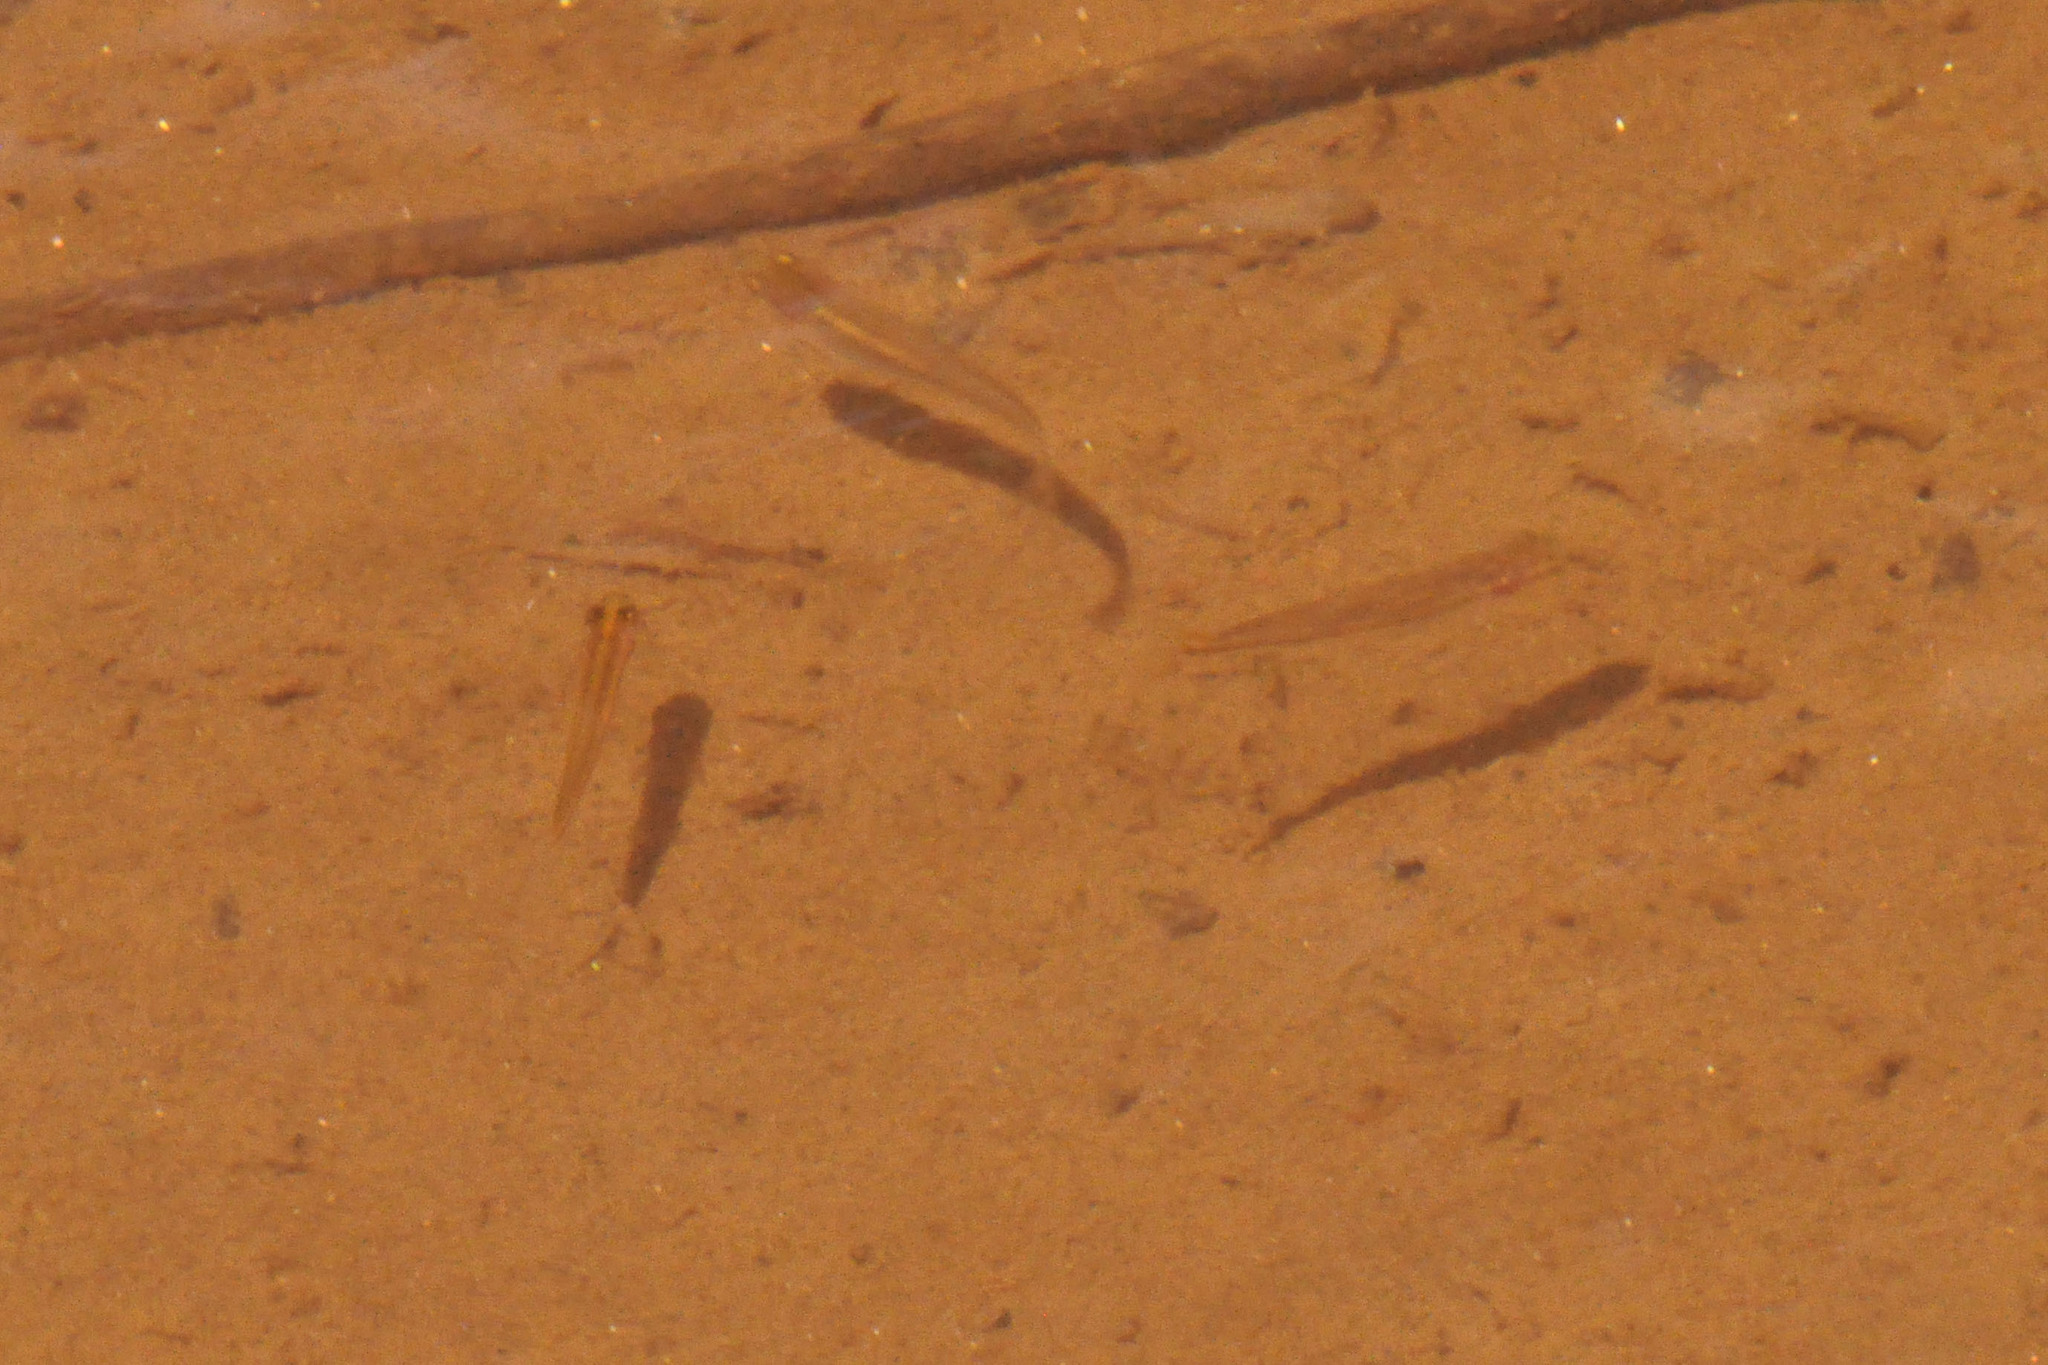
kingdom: Animalia
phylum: Chordata
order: Cyprinodontiformes
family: Poeciliidae
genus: Gambusia
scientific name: Gambusia holbrooki
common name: Eastern mosquitofish
